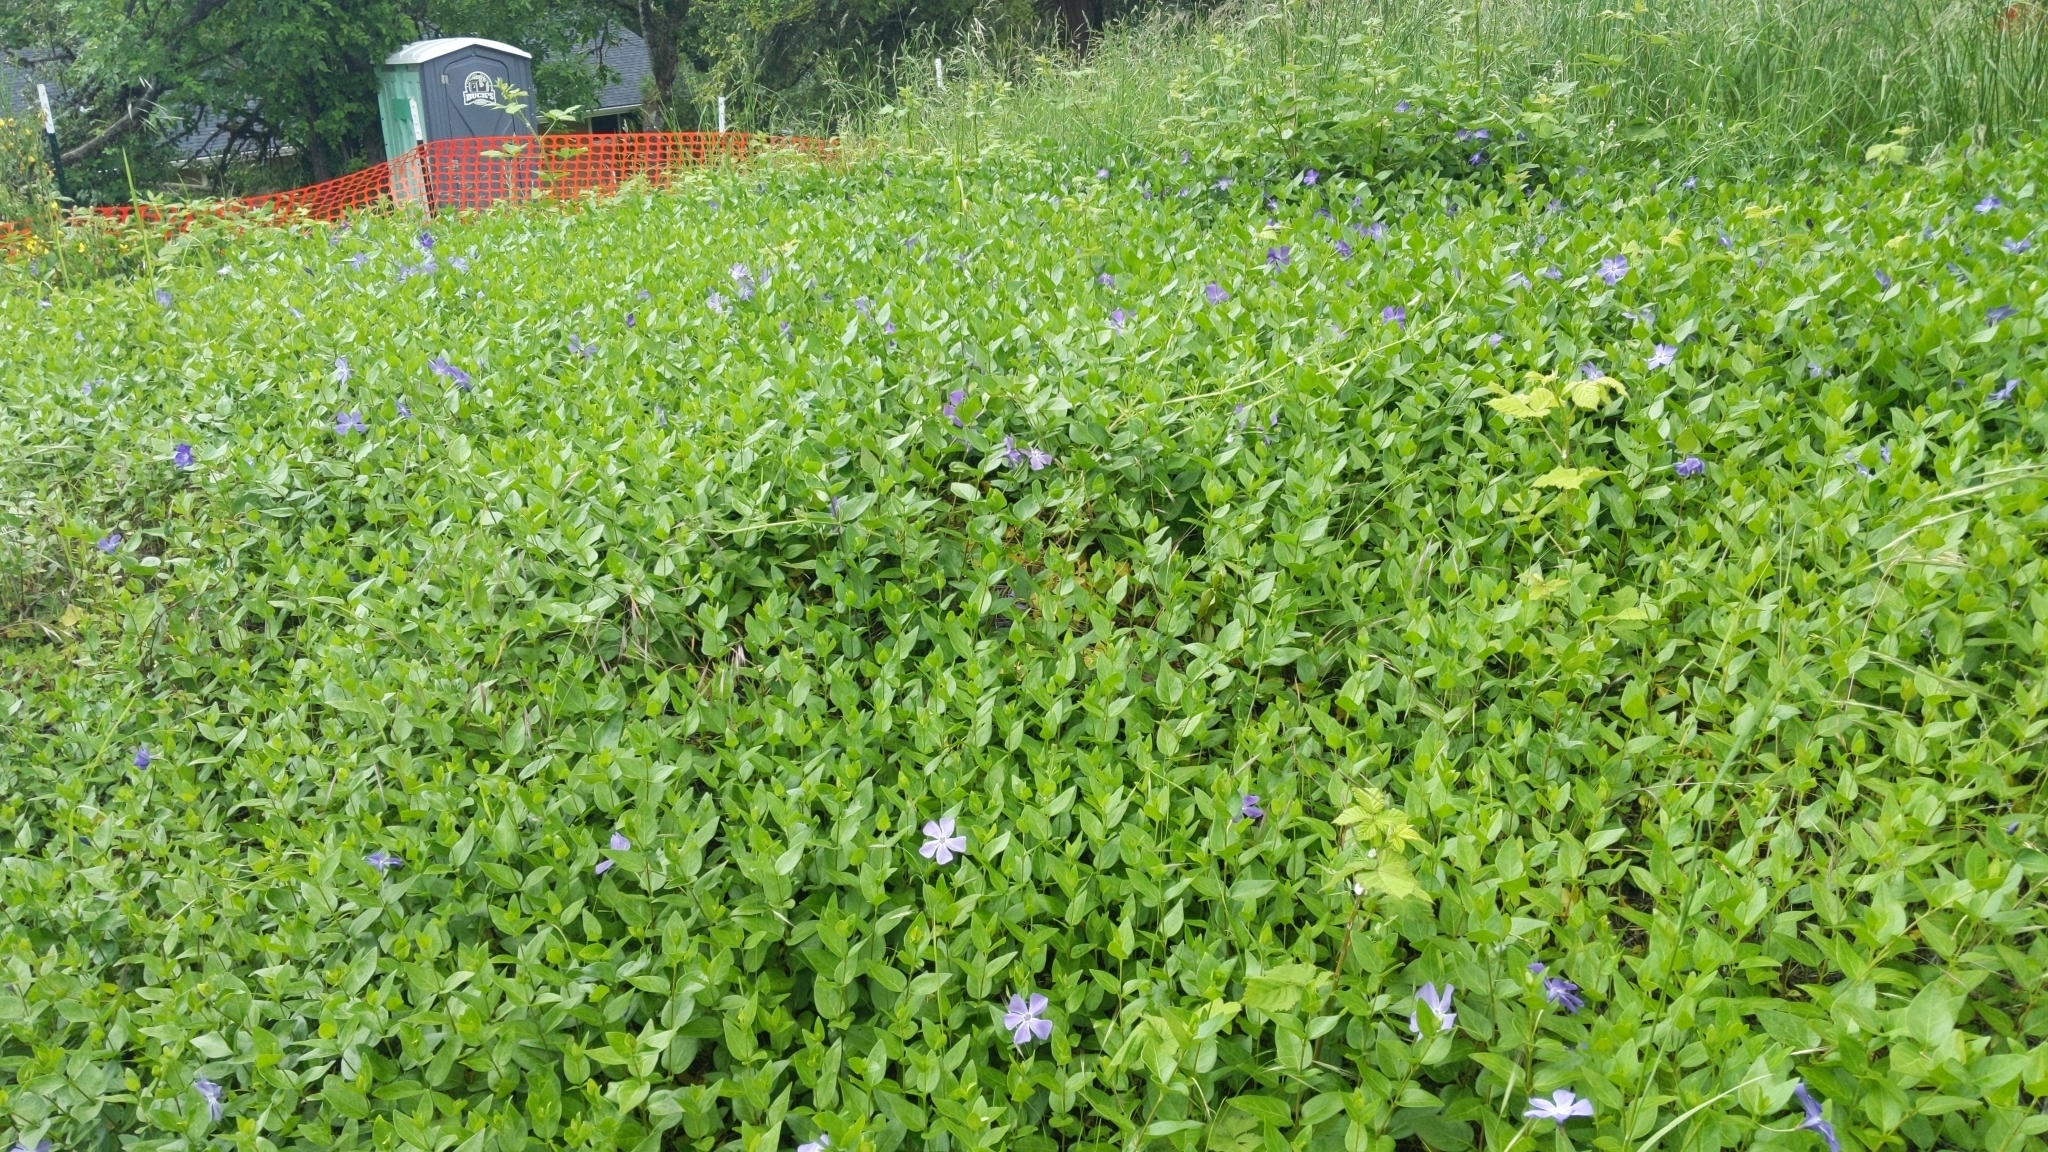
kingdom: Plantae
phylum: Tracheophyta
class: Magnoliopsida
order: Gentianales
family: Apocynaceae
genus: Vinca
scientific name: Vinca major
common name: Greater periwinkle
